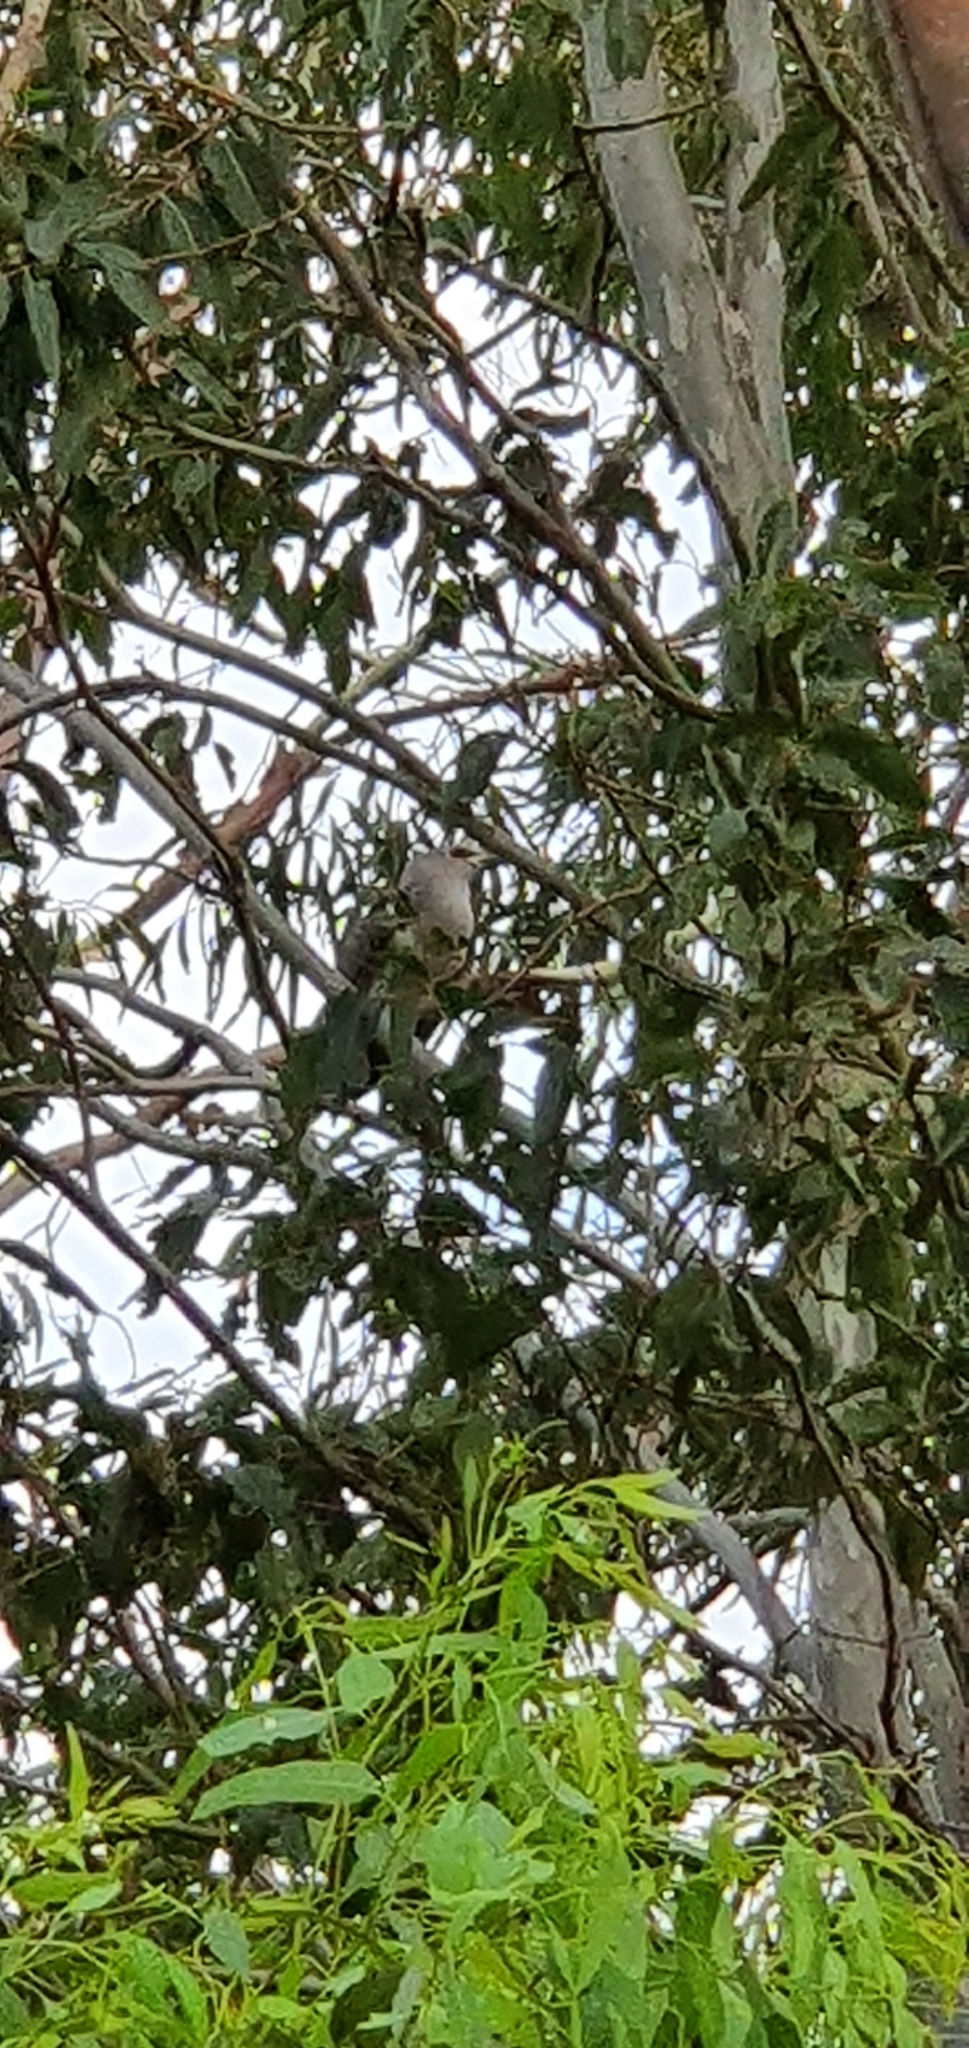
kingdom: Animalia
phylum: Chordata
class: Aves
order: Cuculiformes
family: Cuculidae
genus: Scythrops
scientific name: Scythrops novaehollandiae
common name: Channel-billed cuckoo
